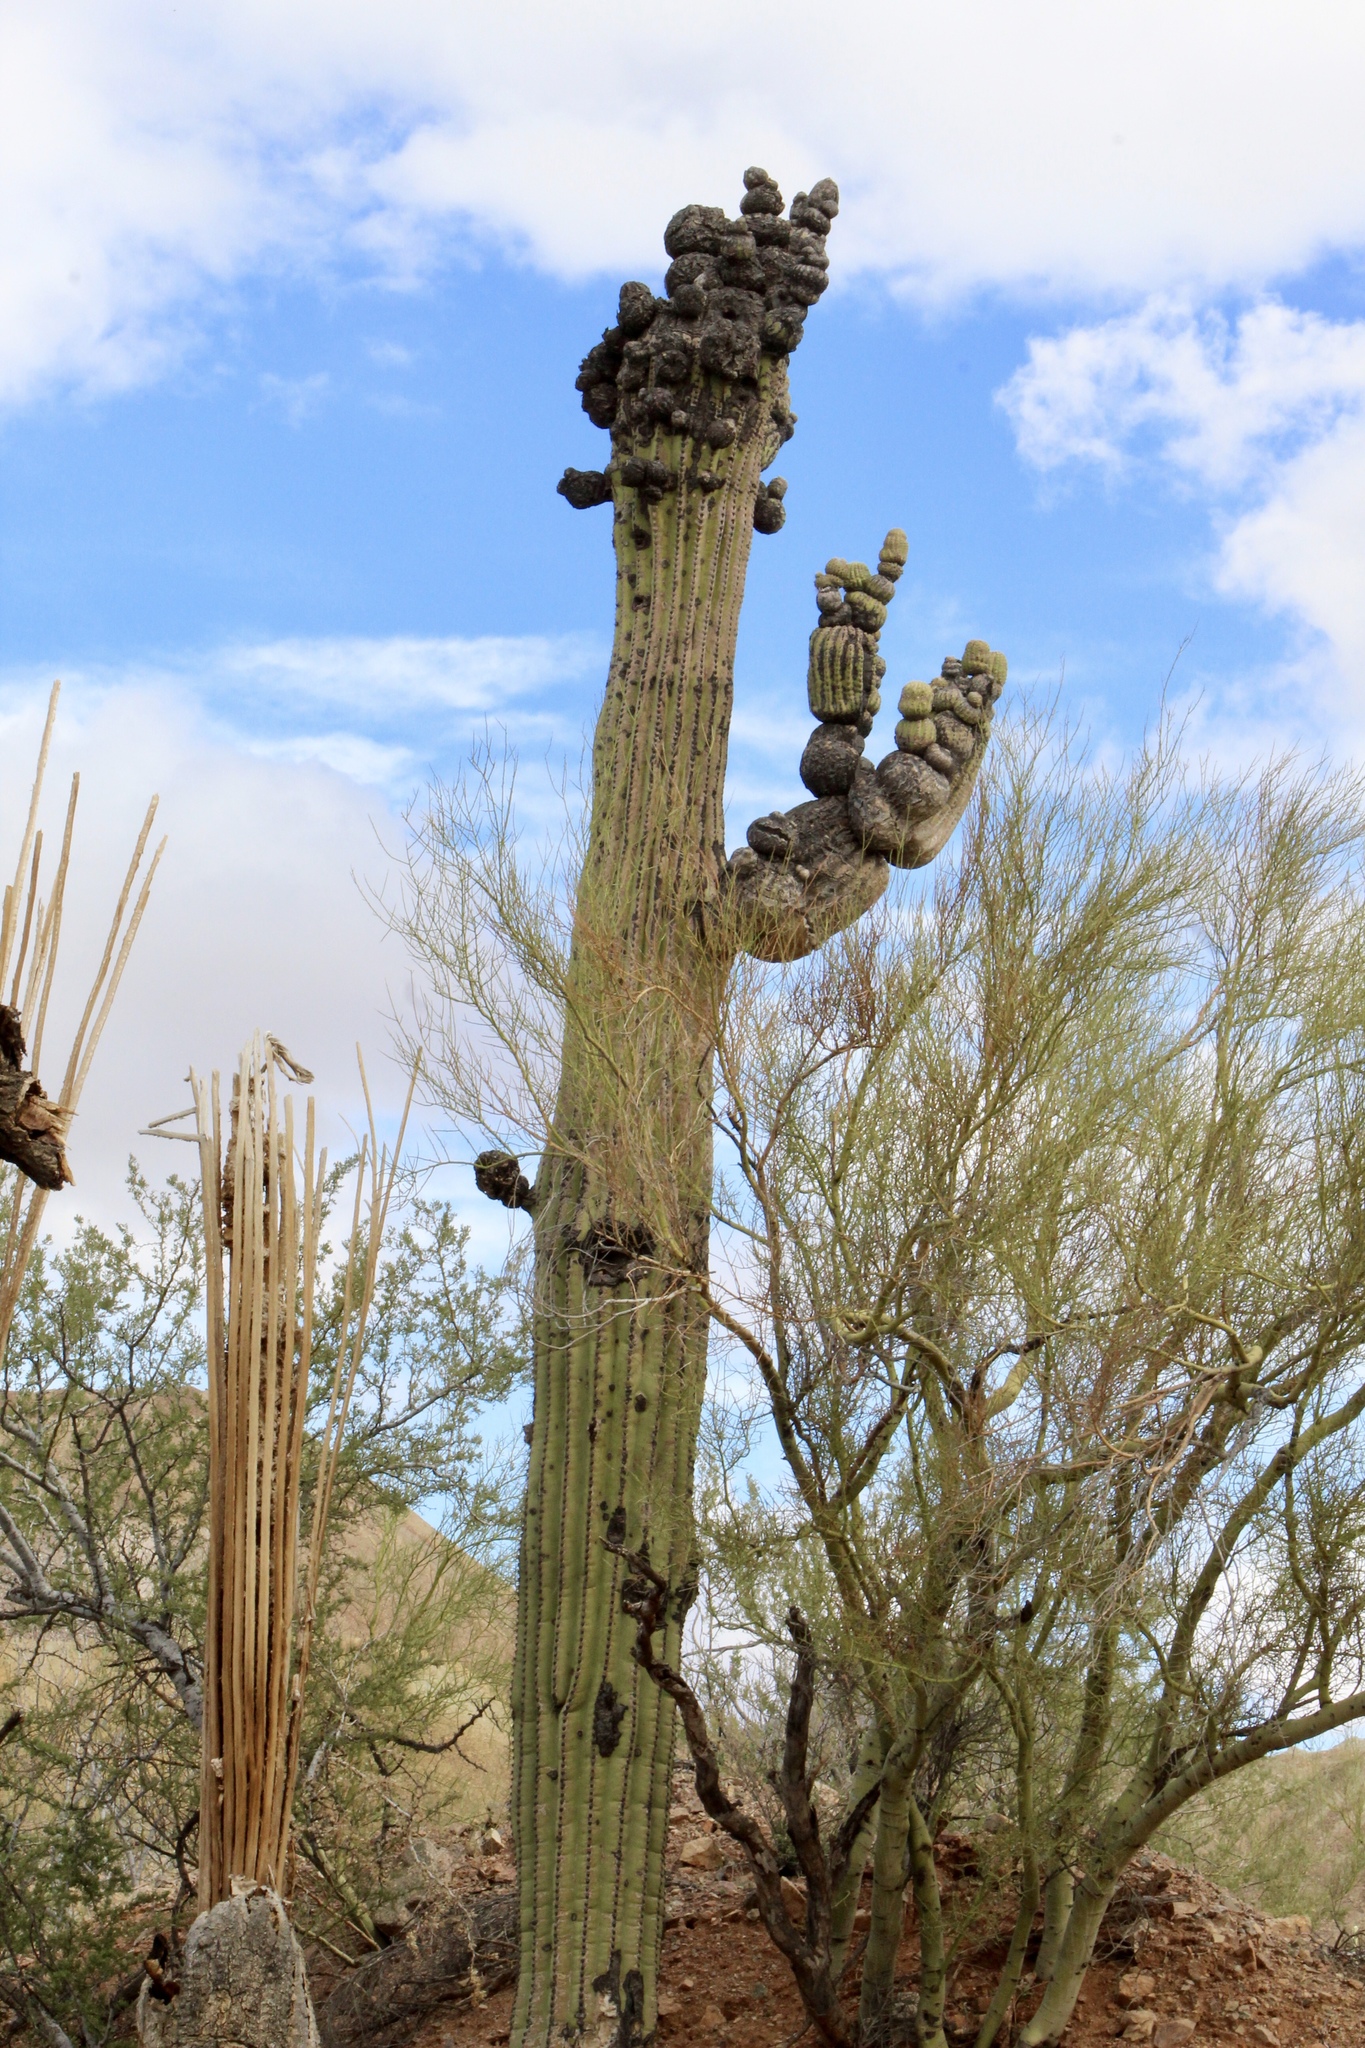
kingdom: Plantae
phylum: Tracheophyta
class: Magnoliopsida
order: Caryophyllales
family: Cactaceae
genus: Carnegiea
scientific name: Carnegiea gigantea
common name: Saguaro
